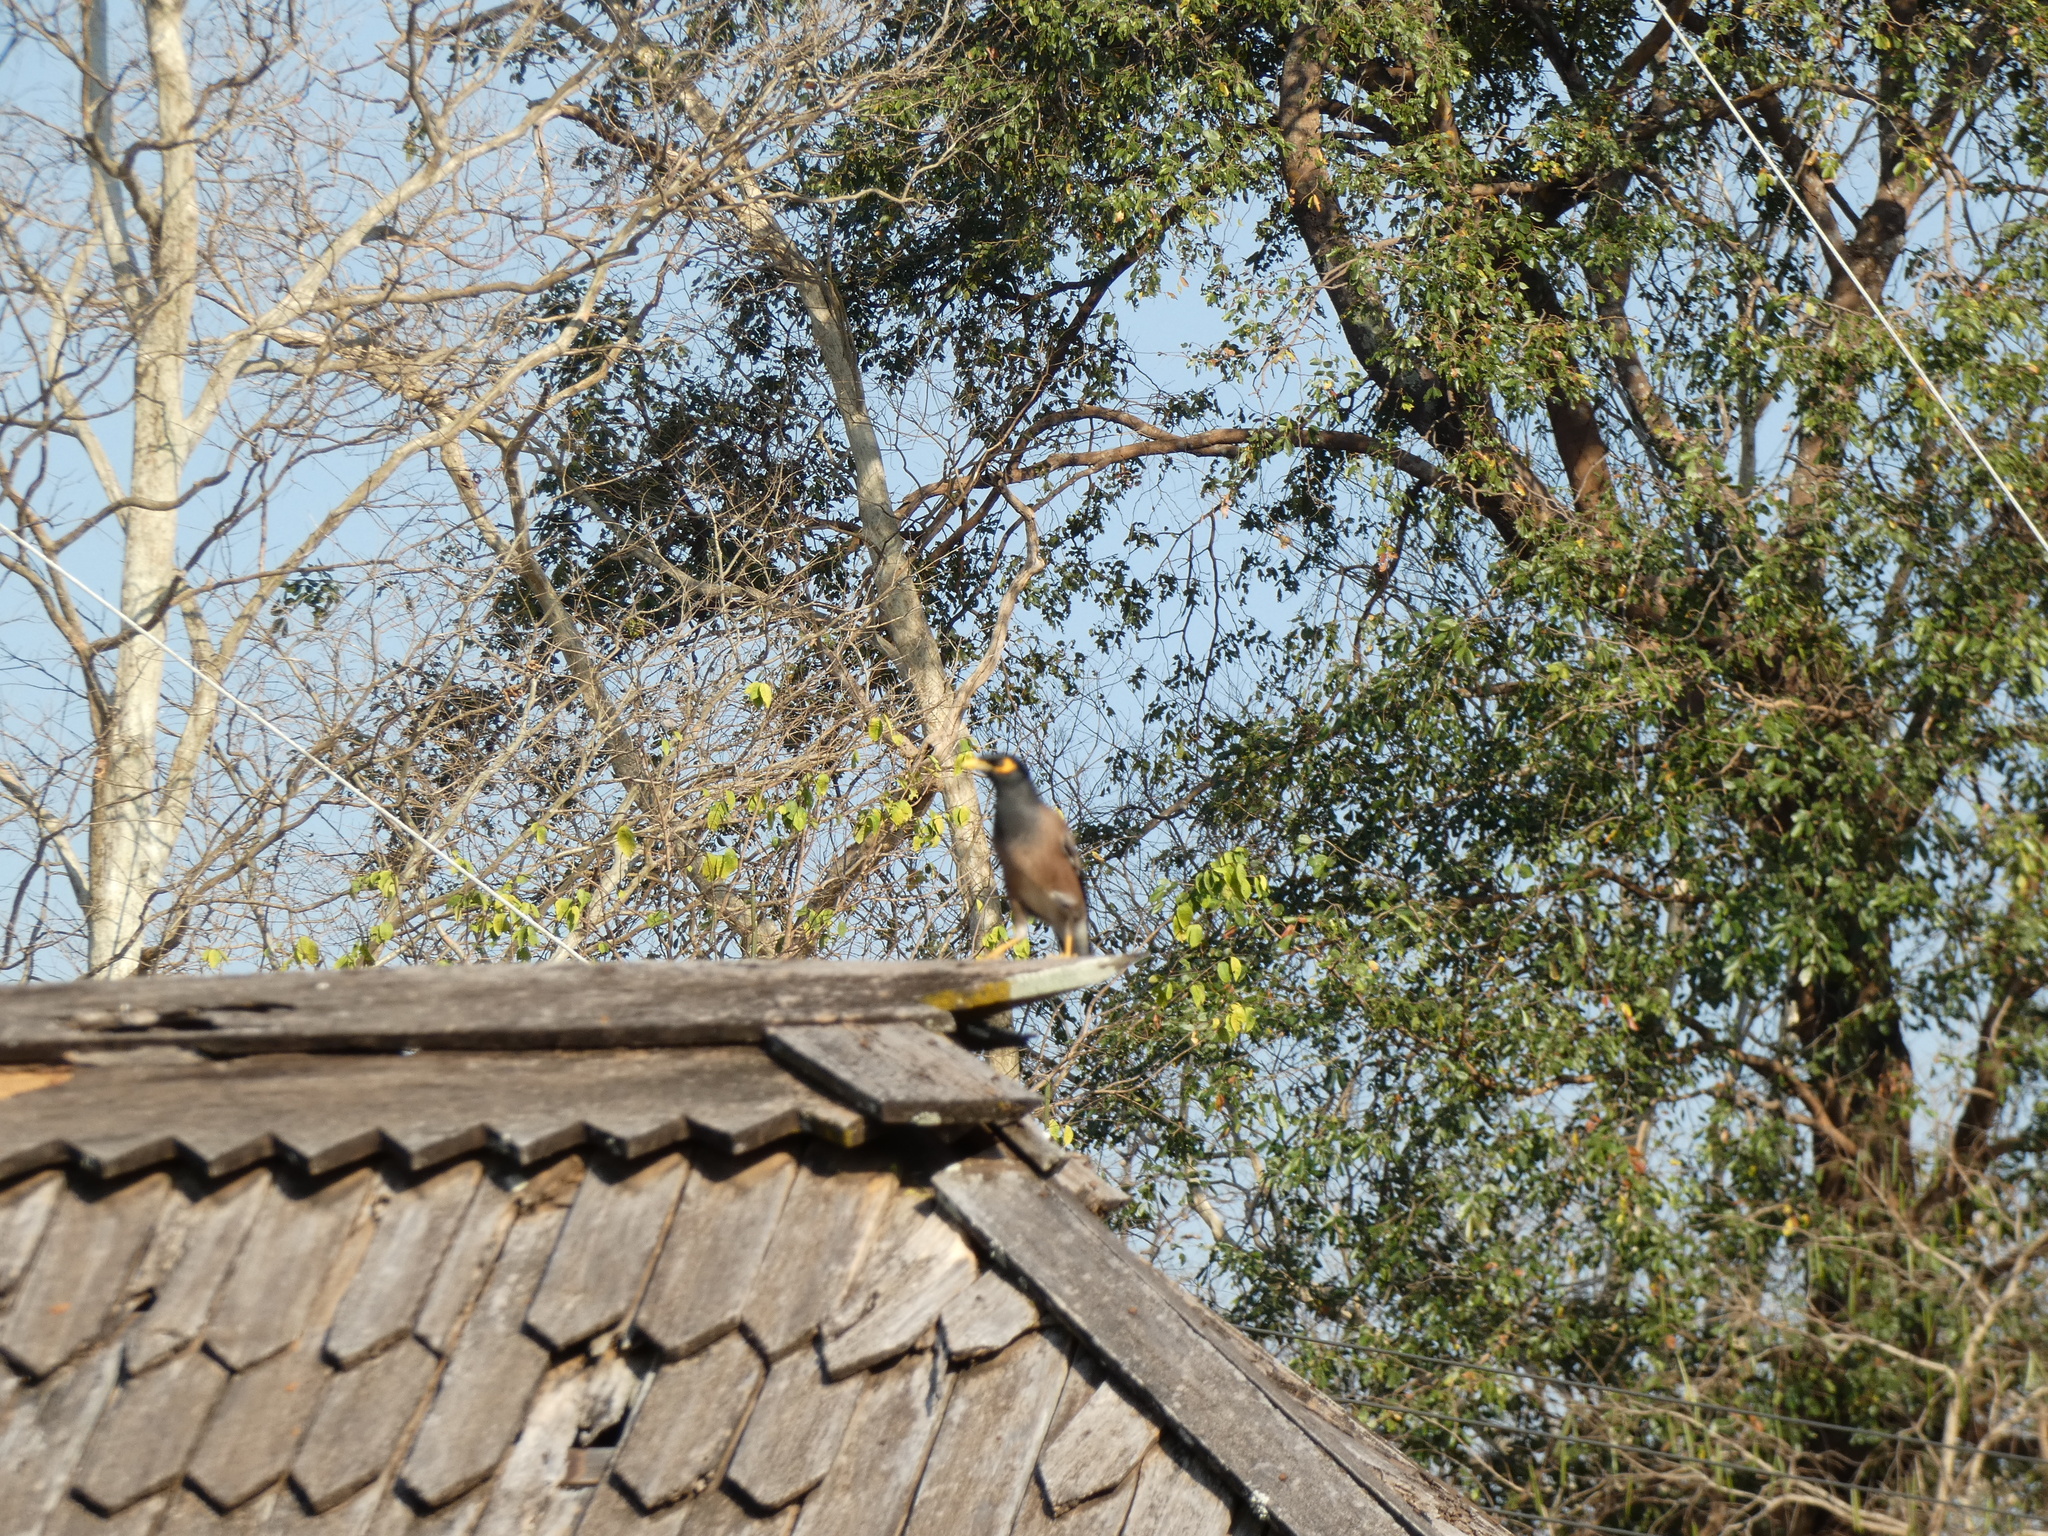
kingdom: Animalia
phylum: Chordata
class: Aves
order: Passeriformes
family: Sturnidae
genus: Acridotheres
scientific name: Acridotheres tristis
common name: Common myna
